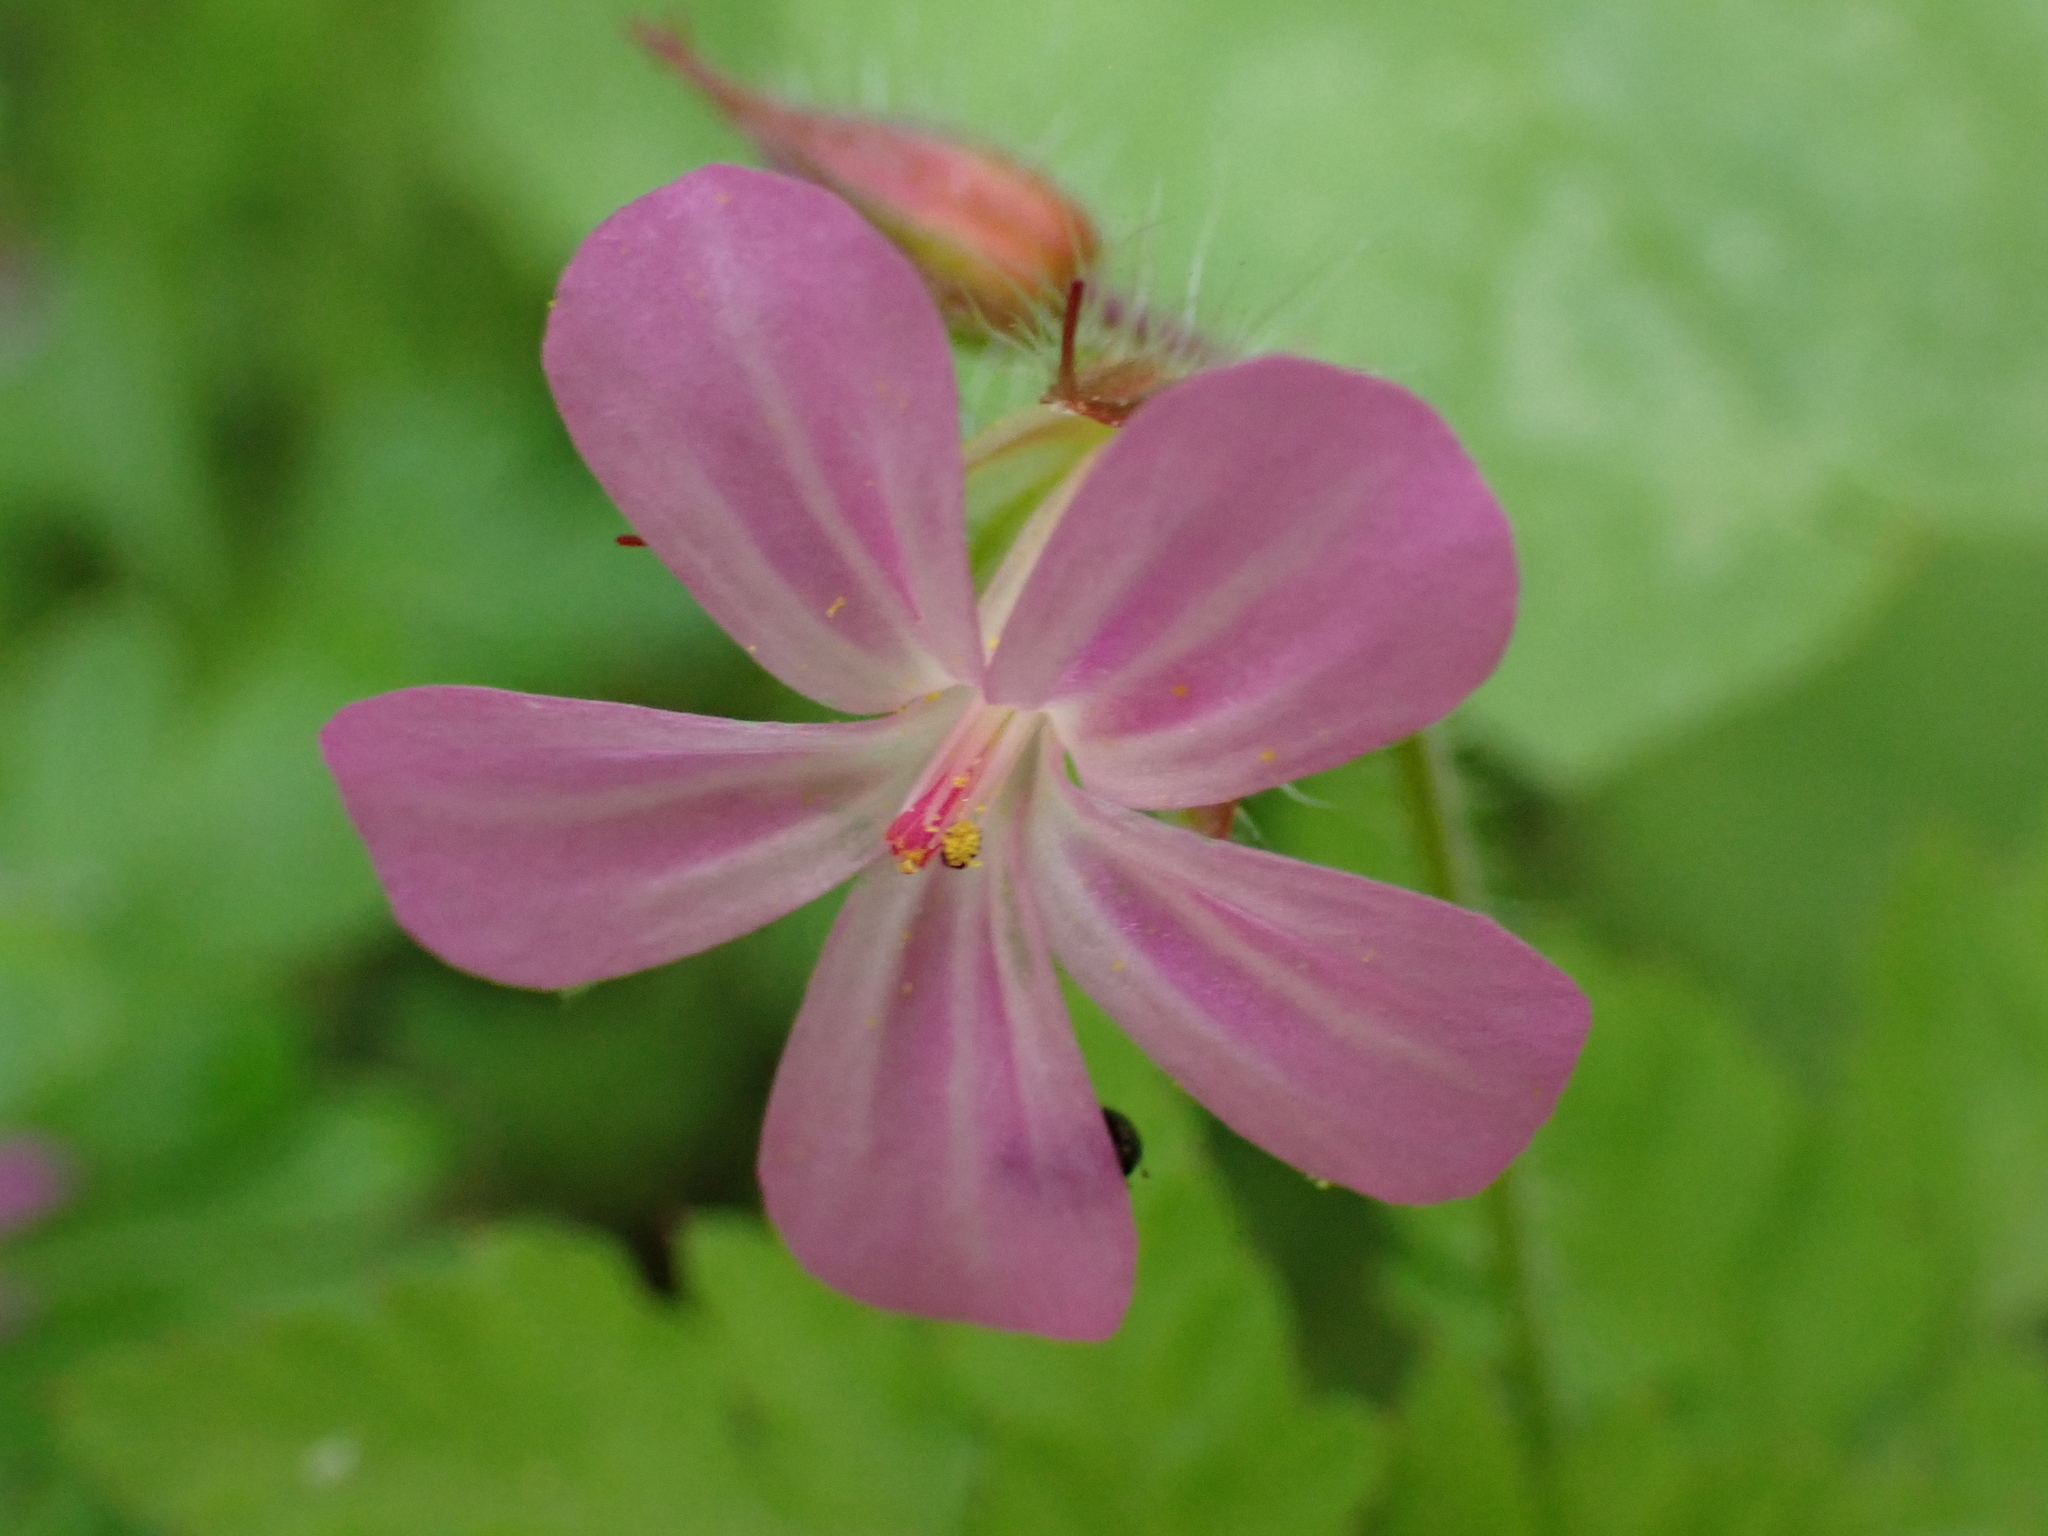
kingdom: Plantae
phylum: Tracheophyta
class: Magnoliopsida
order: Geraniales
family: Geraniaceae
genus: Geranium
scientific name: Geranium robertianum
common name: Herb-robert
